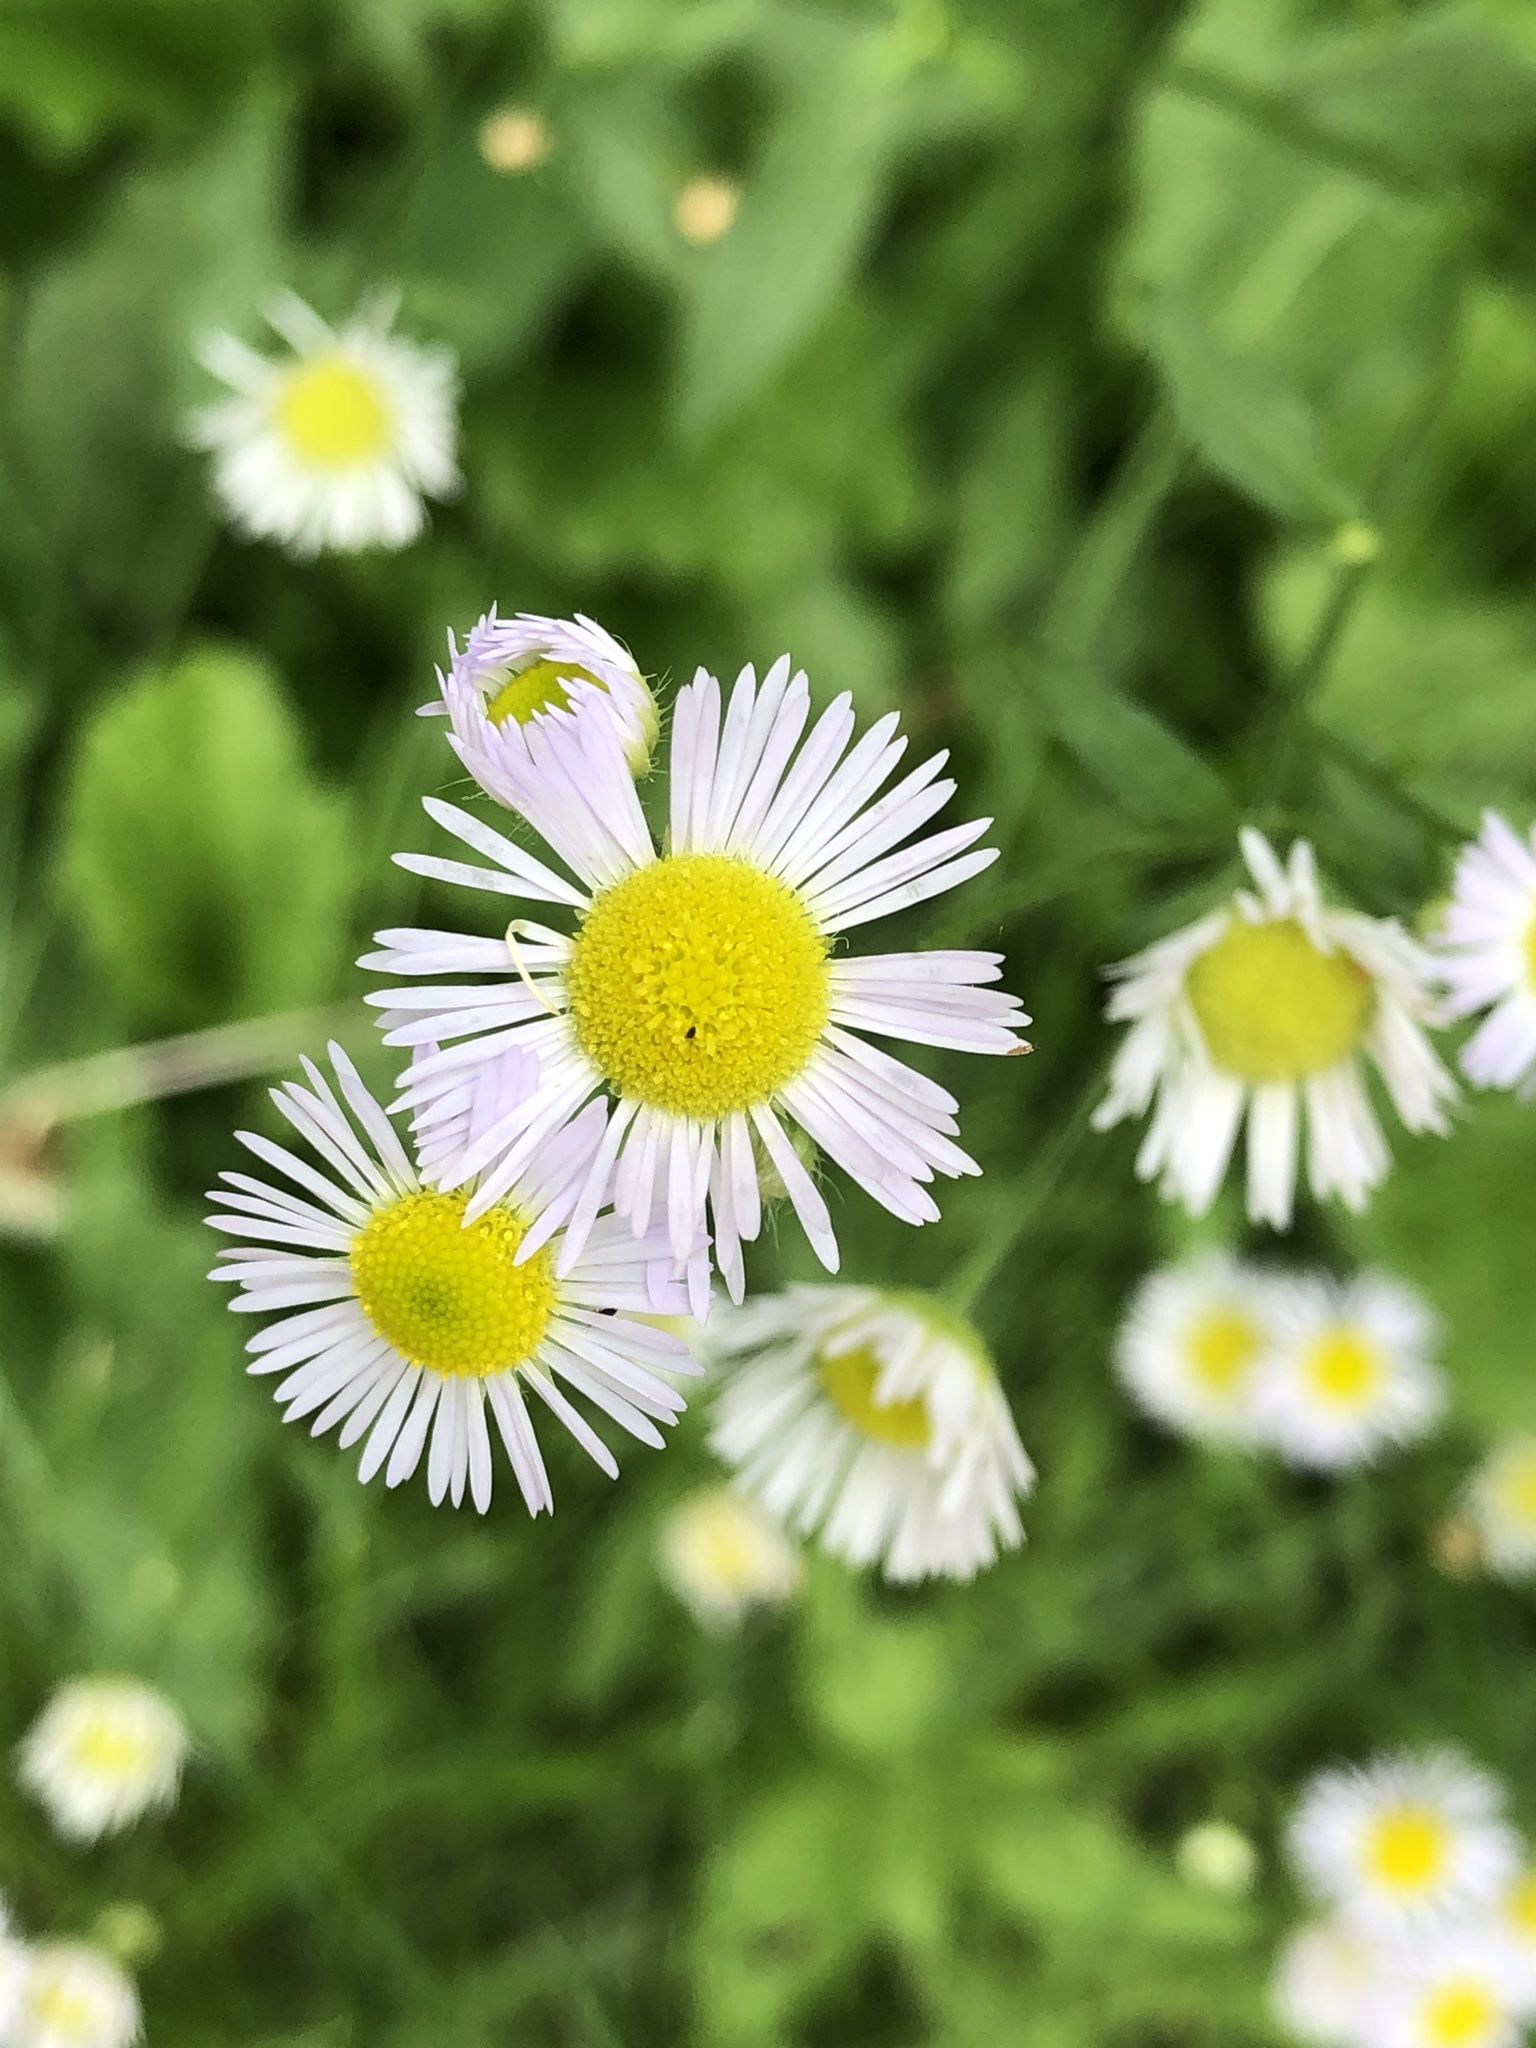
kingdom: Plantae
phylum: Tracheophyta
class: Magnoliopsida
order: Asterales
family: Asteraceae
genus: Erigeron
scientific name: Erigeron annuus
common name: Tall fleabane
